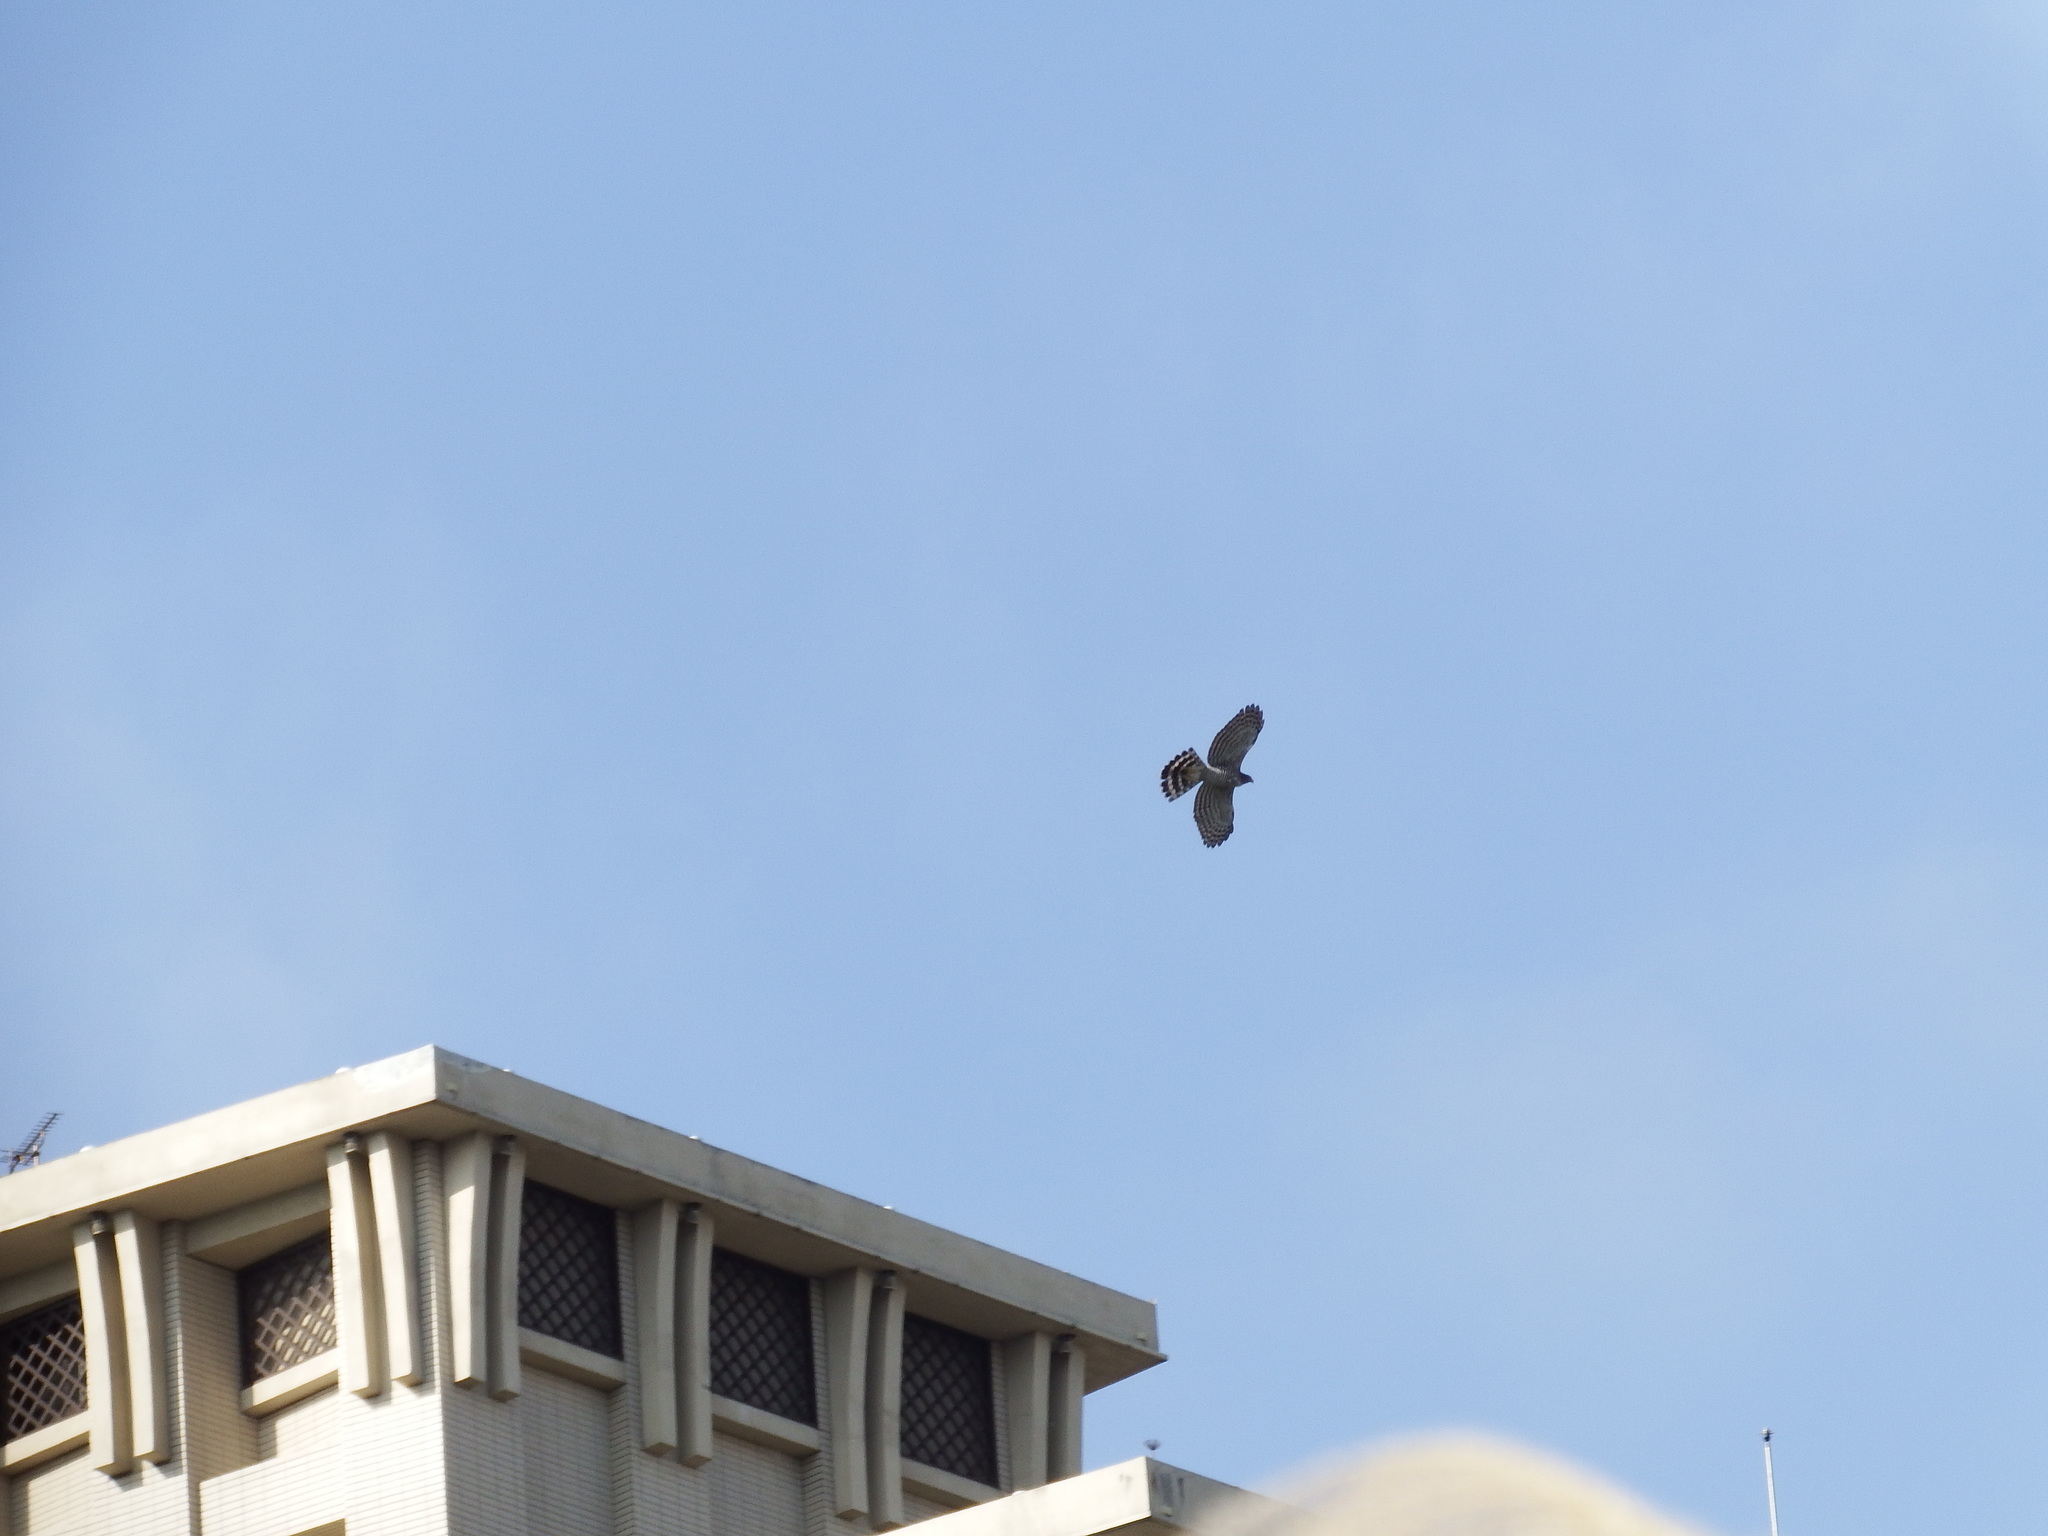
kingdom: Animalia
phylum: Chordata
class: Aves
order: Accipitriformes
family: Accipitridae
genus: Accipiter
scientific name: Accipiter trivirgatus
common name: Crested goshawk
